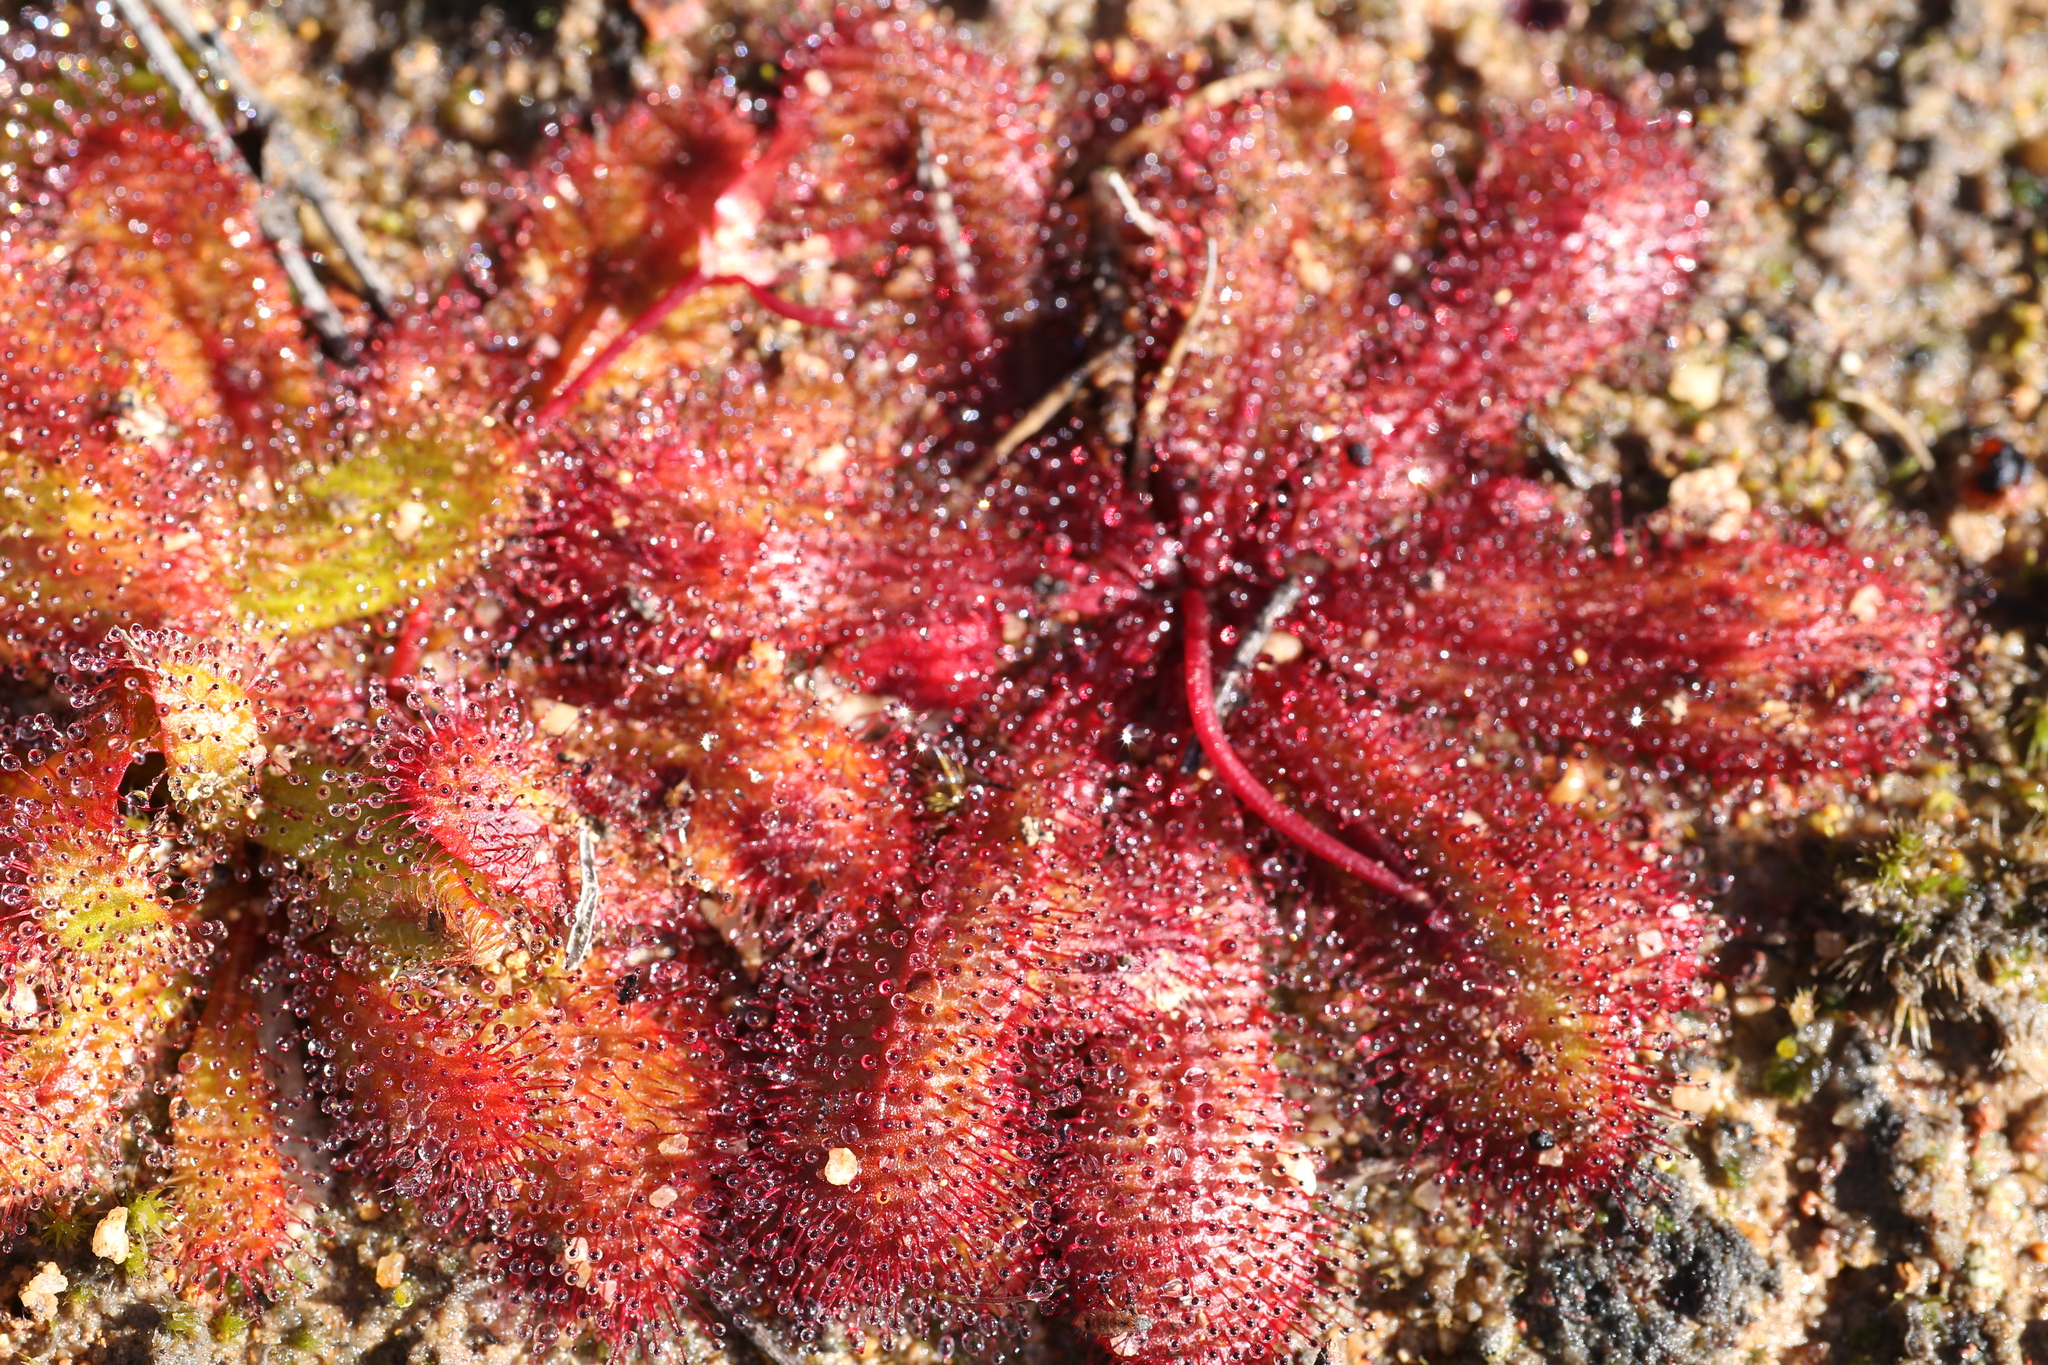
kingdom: Plantae
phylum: Tracheophyta
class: Magnoliopsida
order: Caryophyllales
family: Droseraceae
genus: Drosera
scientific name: Drosera bulbosa
